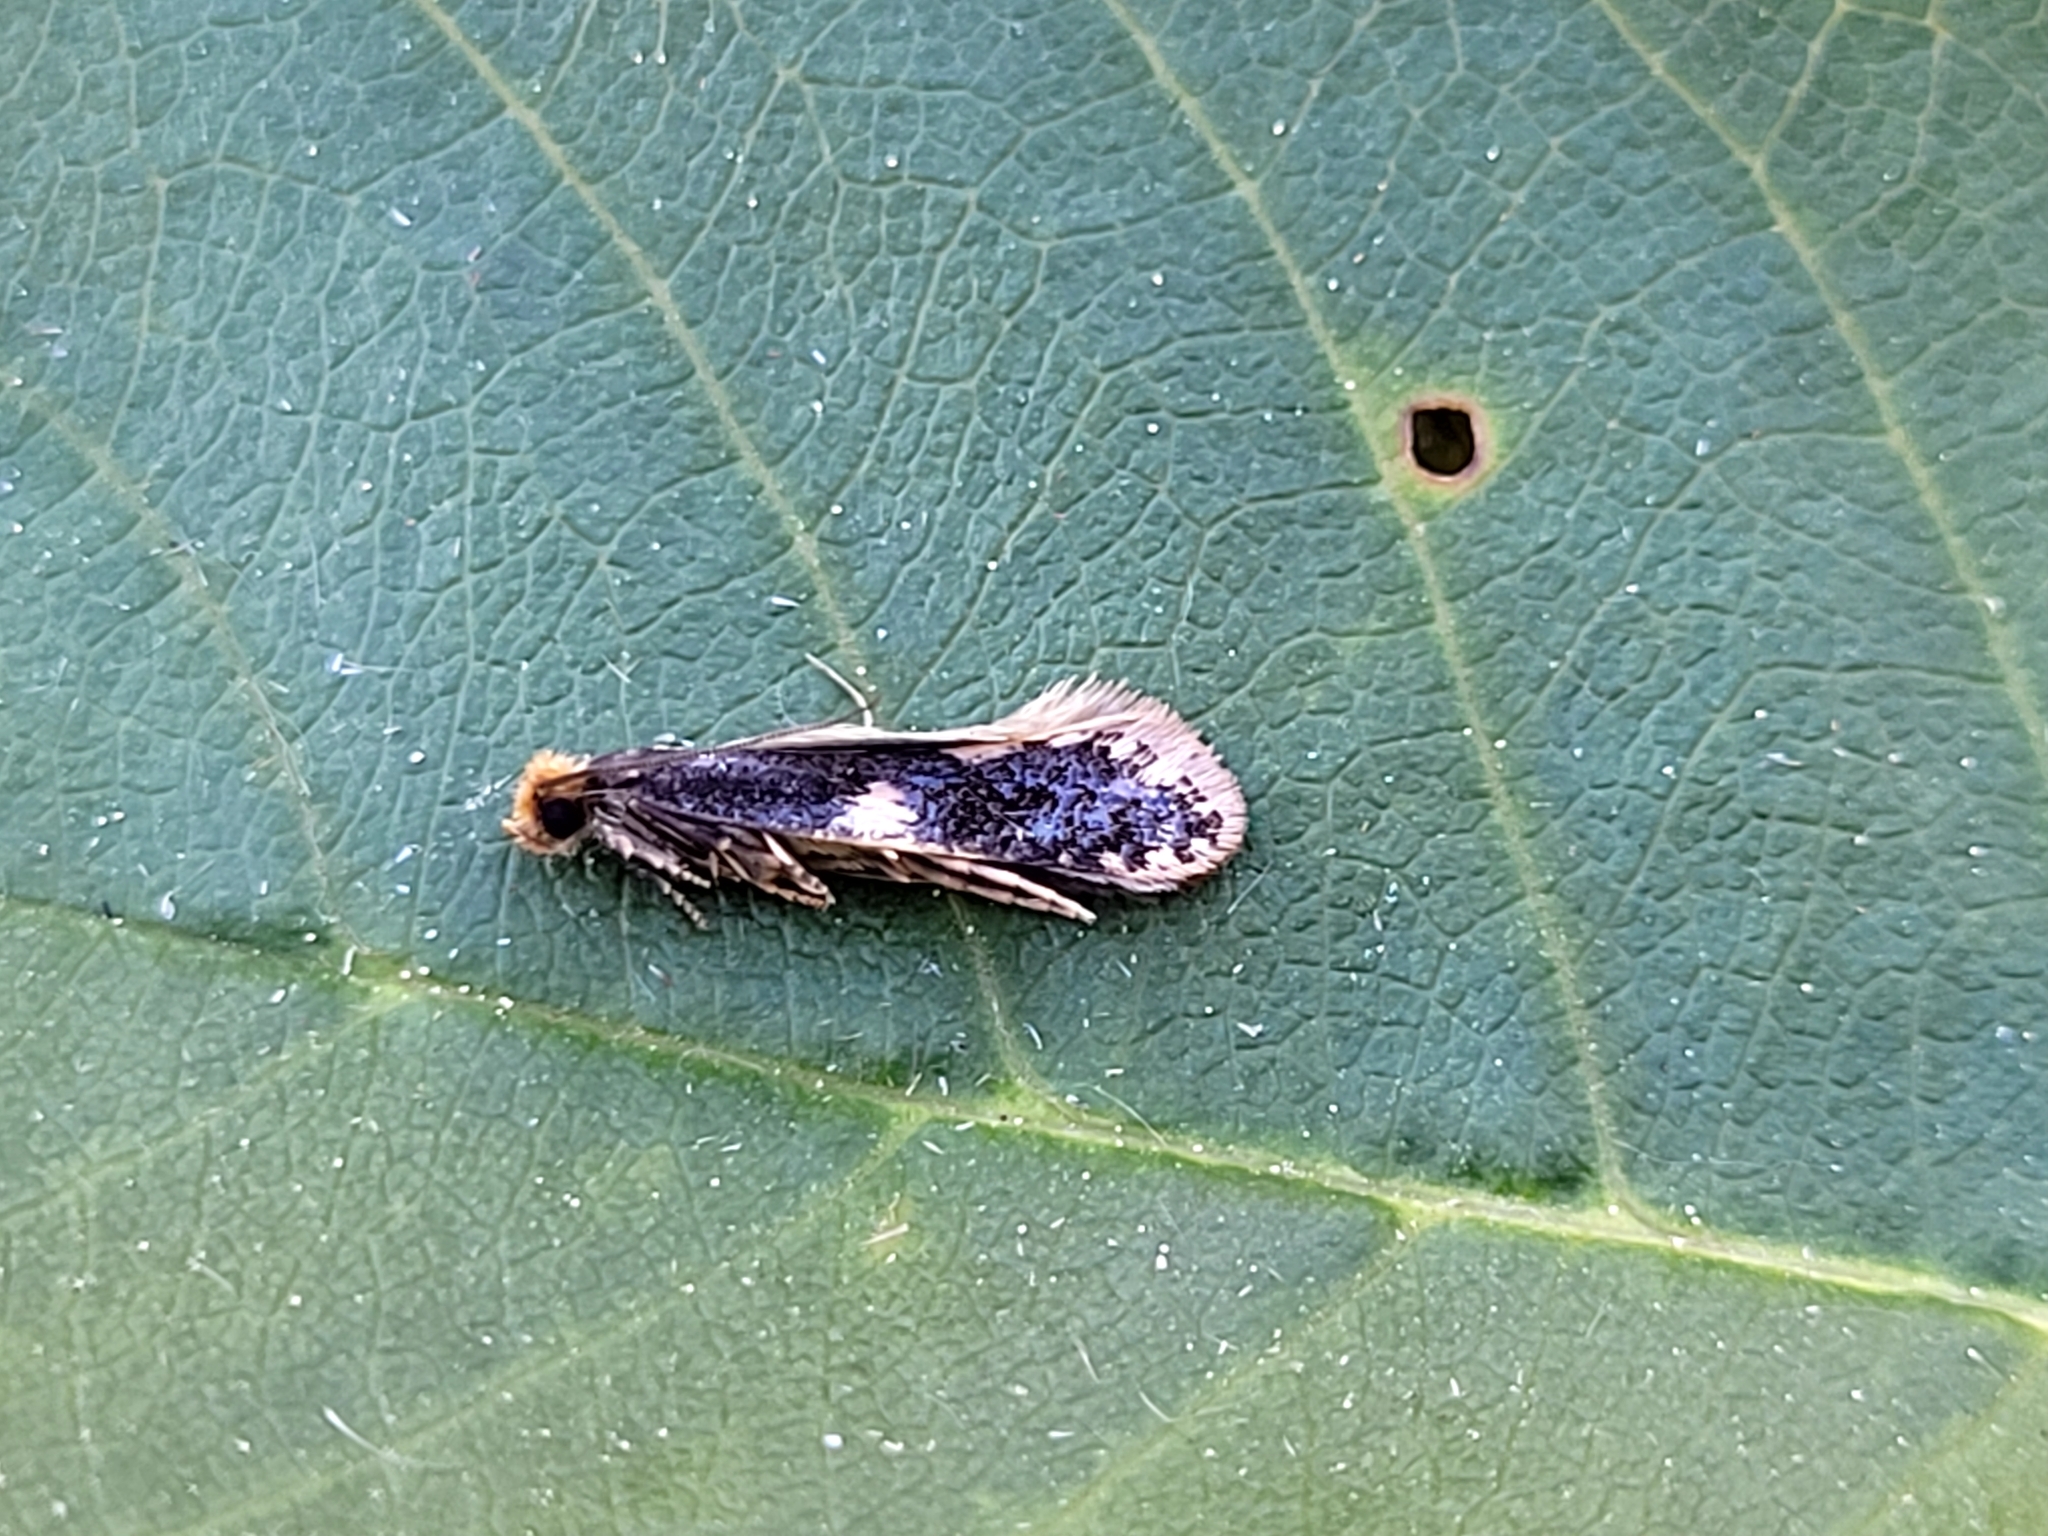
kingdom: Animalia
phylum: Arthropoda
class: Insecta
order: Lepidoptera
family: Tineidae
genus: Monopis
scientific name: Monopis spilotella
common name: Orange-headed monopis
